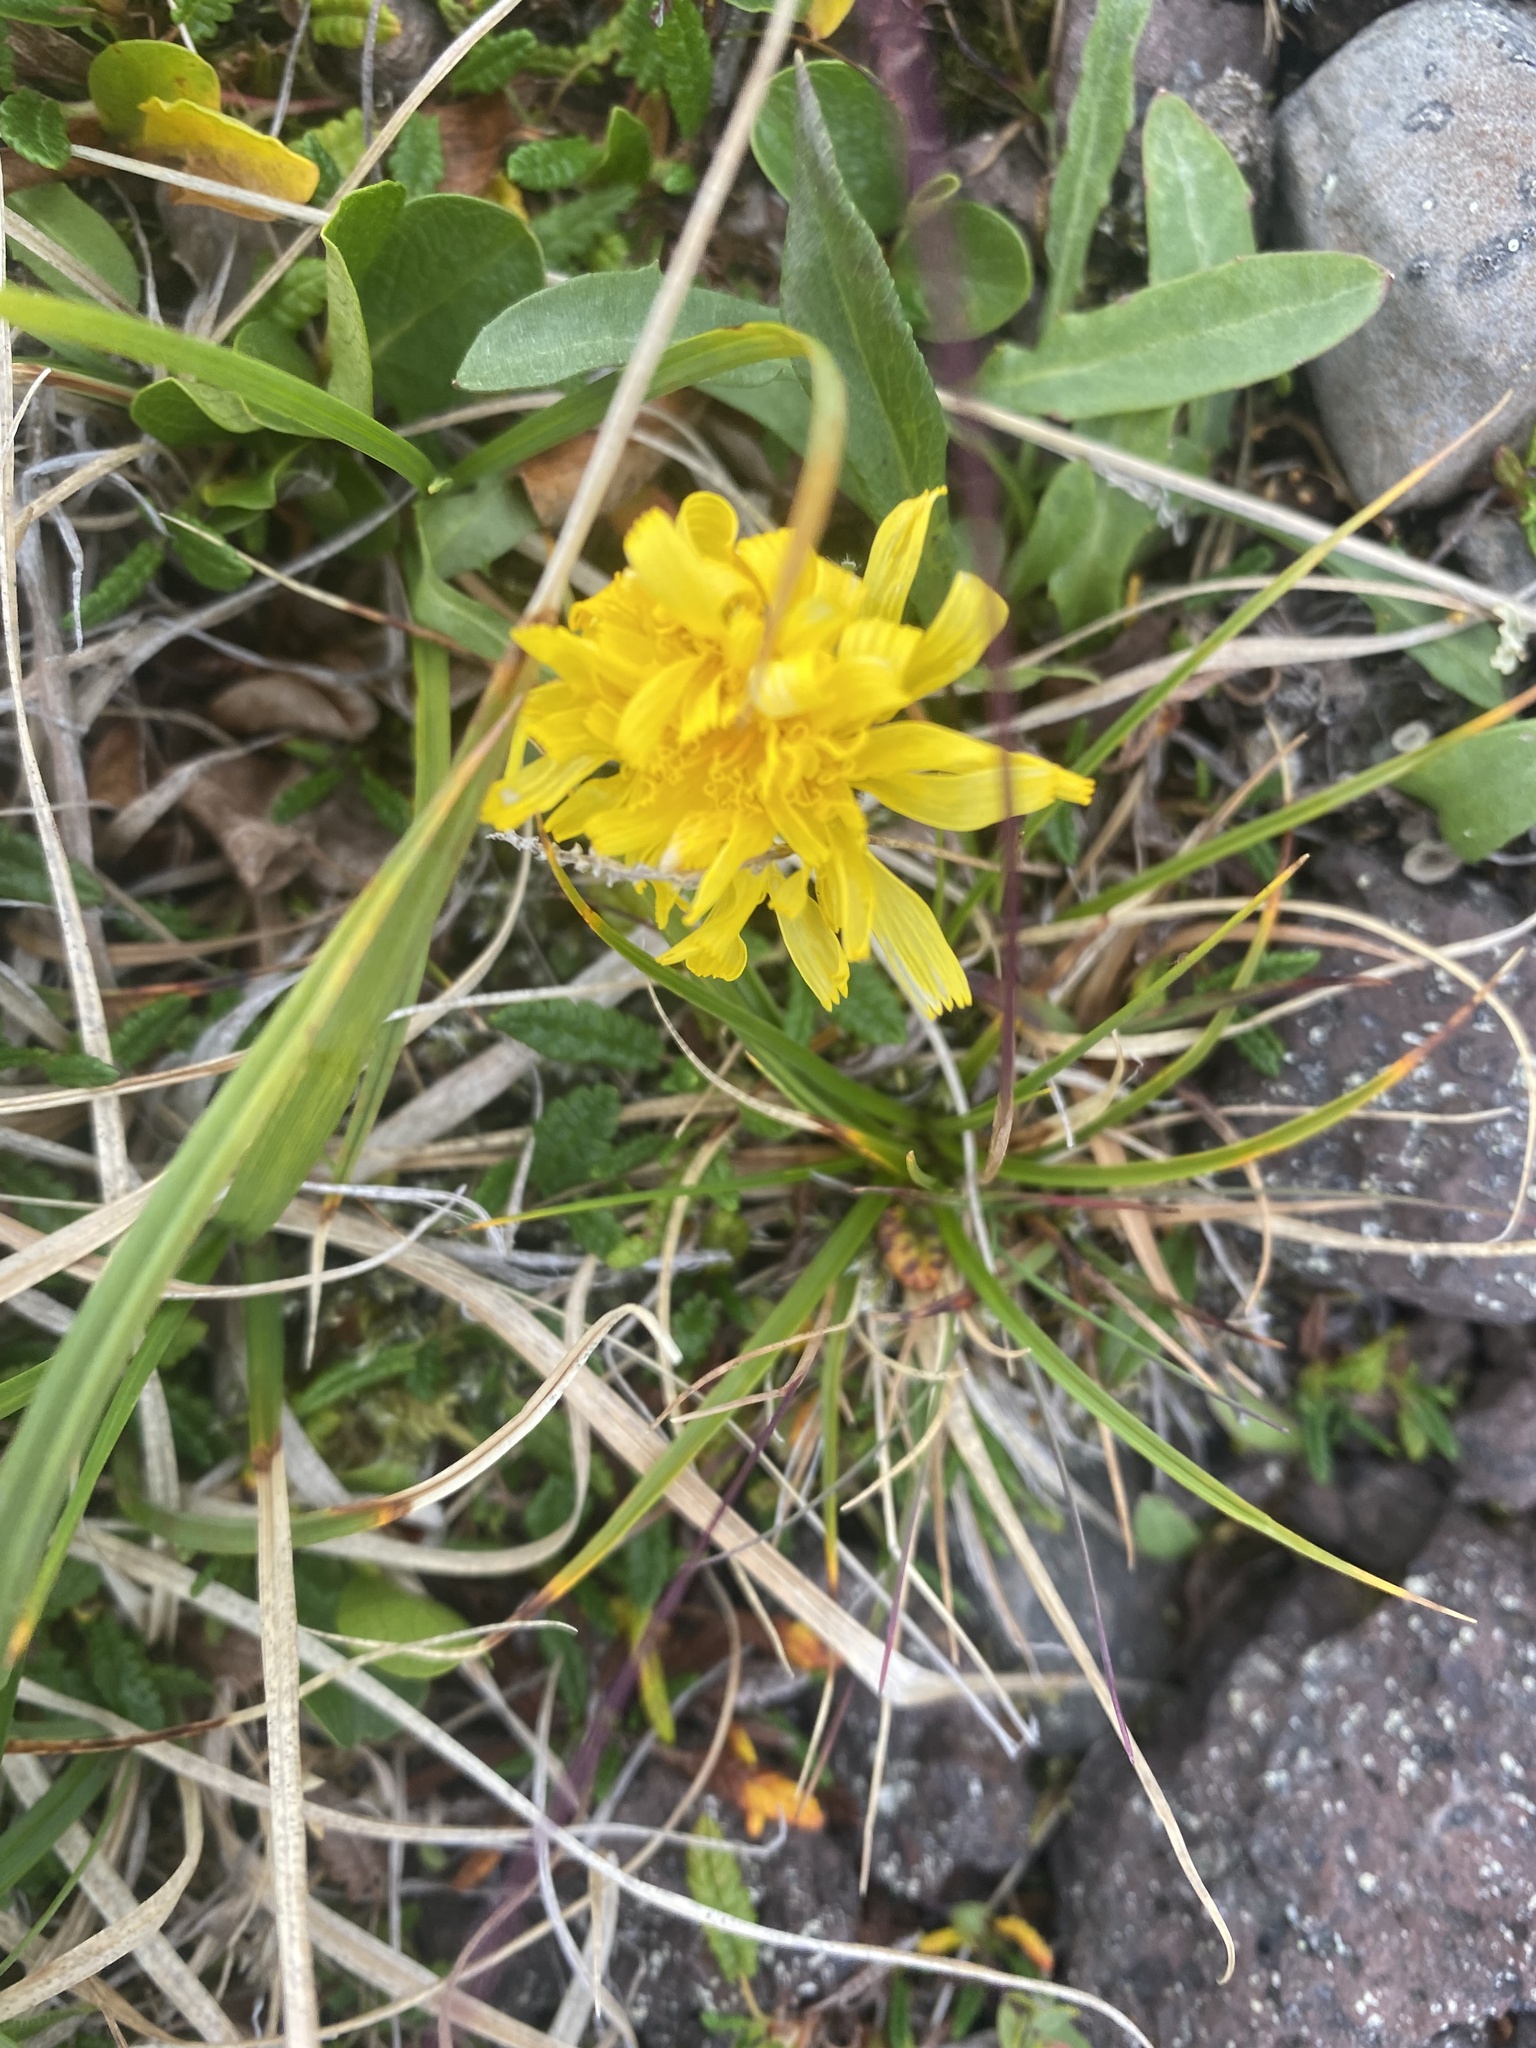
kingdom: Plantae
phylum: Tracheophyta
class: Magnoliopsida
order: Asterales
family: Asteraceae
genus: Crepis
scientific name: Crepis chrysantha
